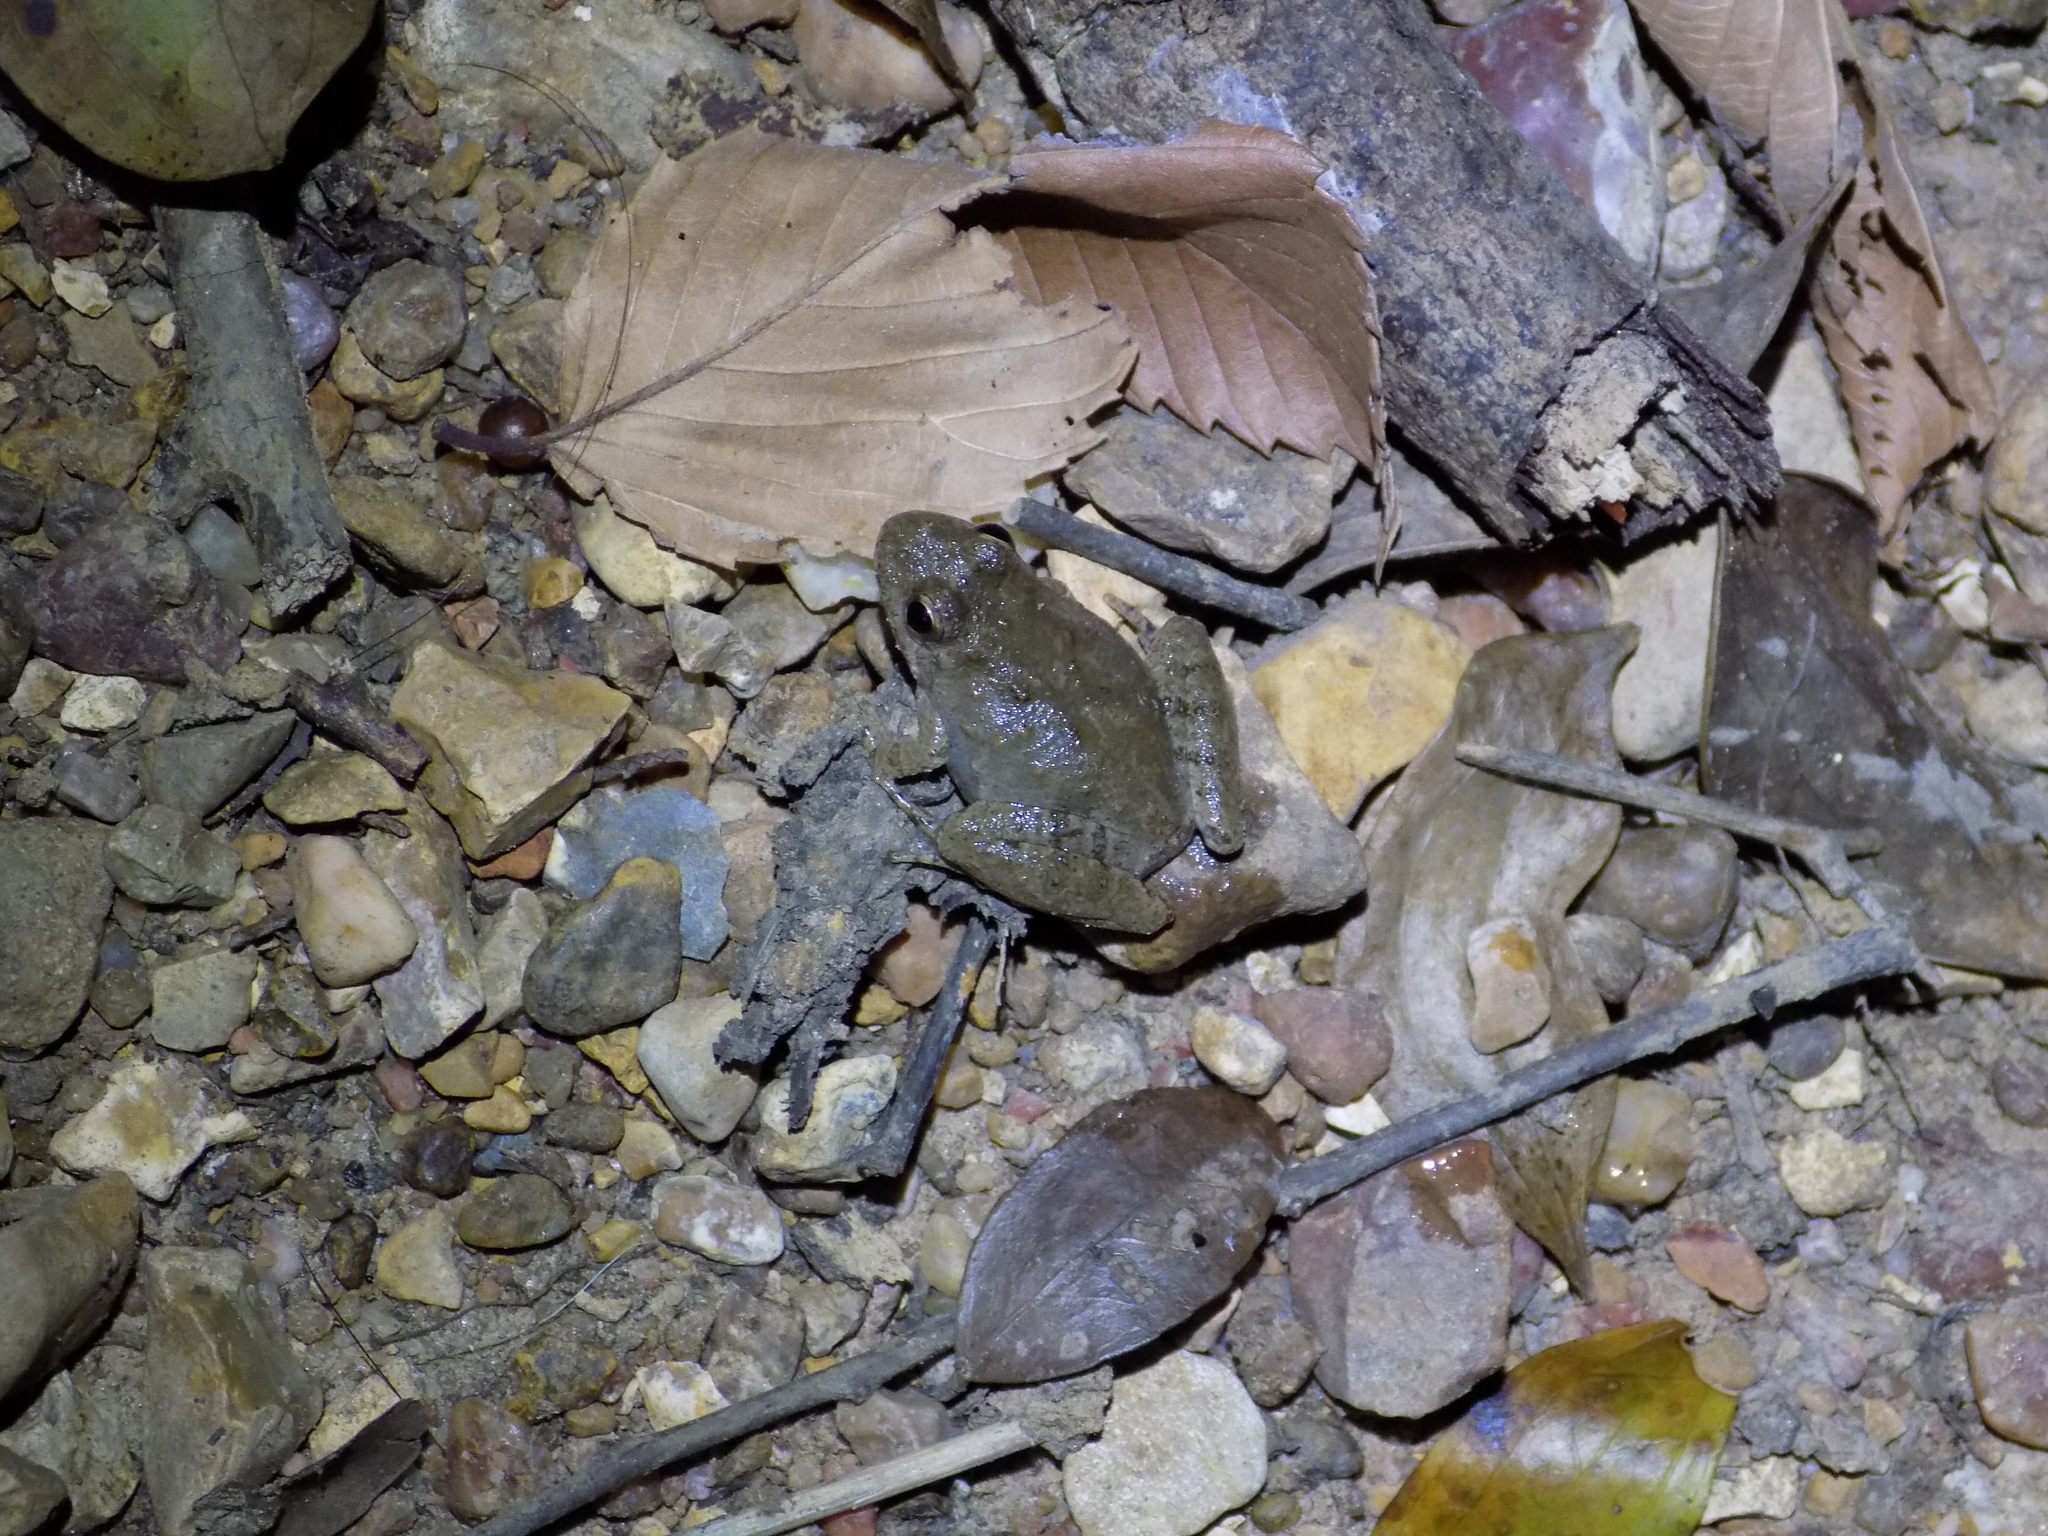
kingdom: Animalia
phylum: Chordata
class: Amphibia
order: Anura
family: Hylidae
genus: Acris
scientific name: Acris blanchardi
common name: Blanchard's cricket frog
